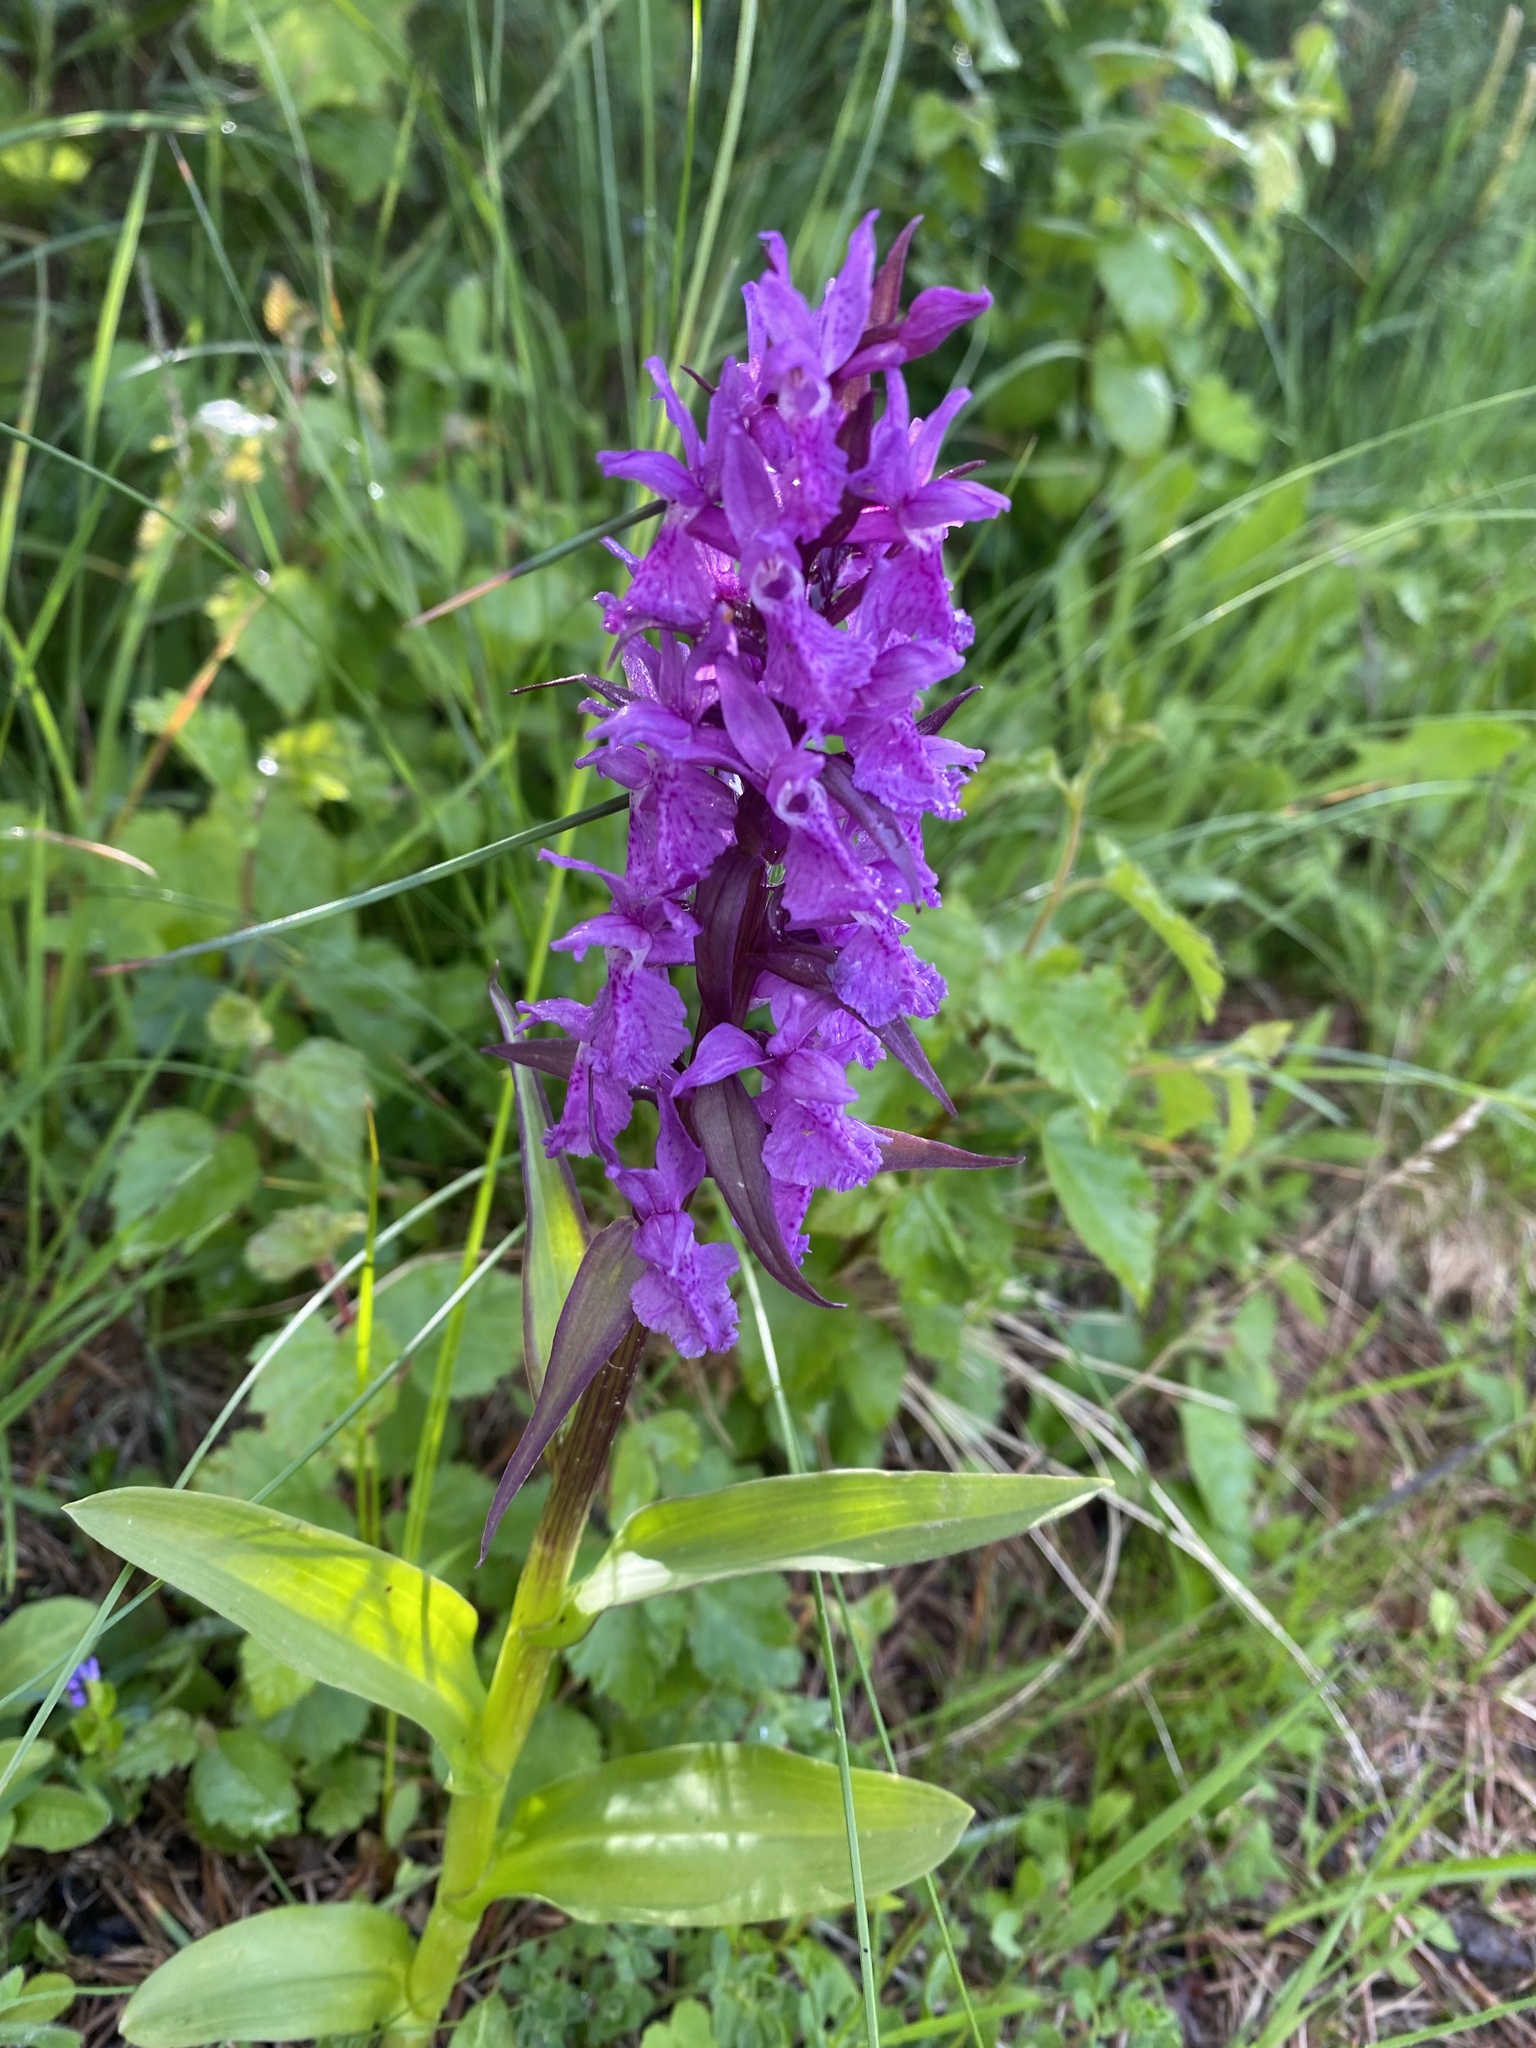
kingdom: Plantae
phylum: Tracheophyta
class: Liliopsida
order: Asparagales
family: Orchidaceae
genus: Dactylorhiza
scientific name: Dactylorhiza euxina
